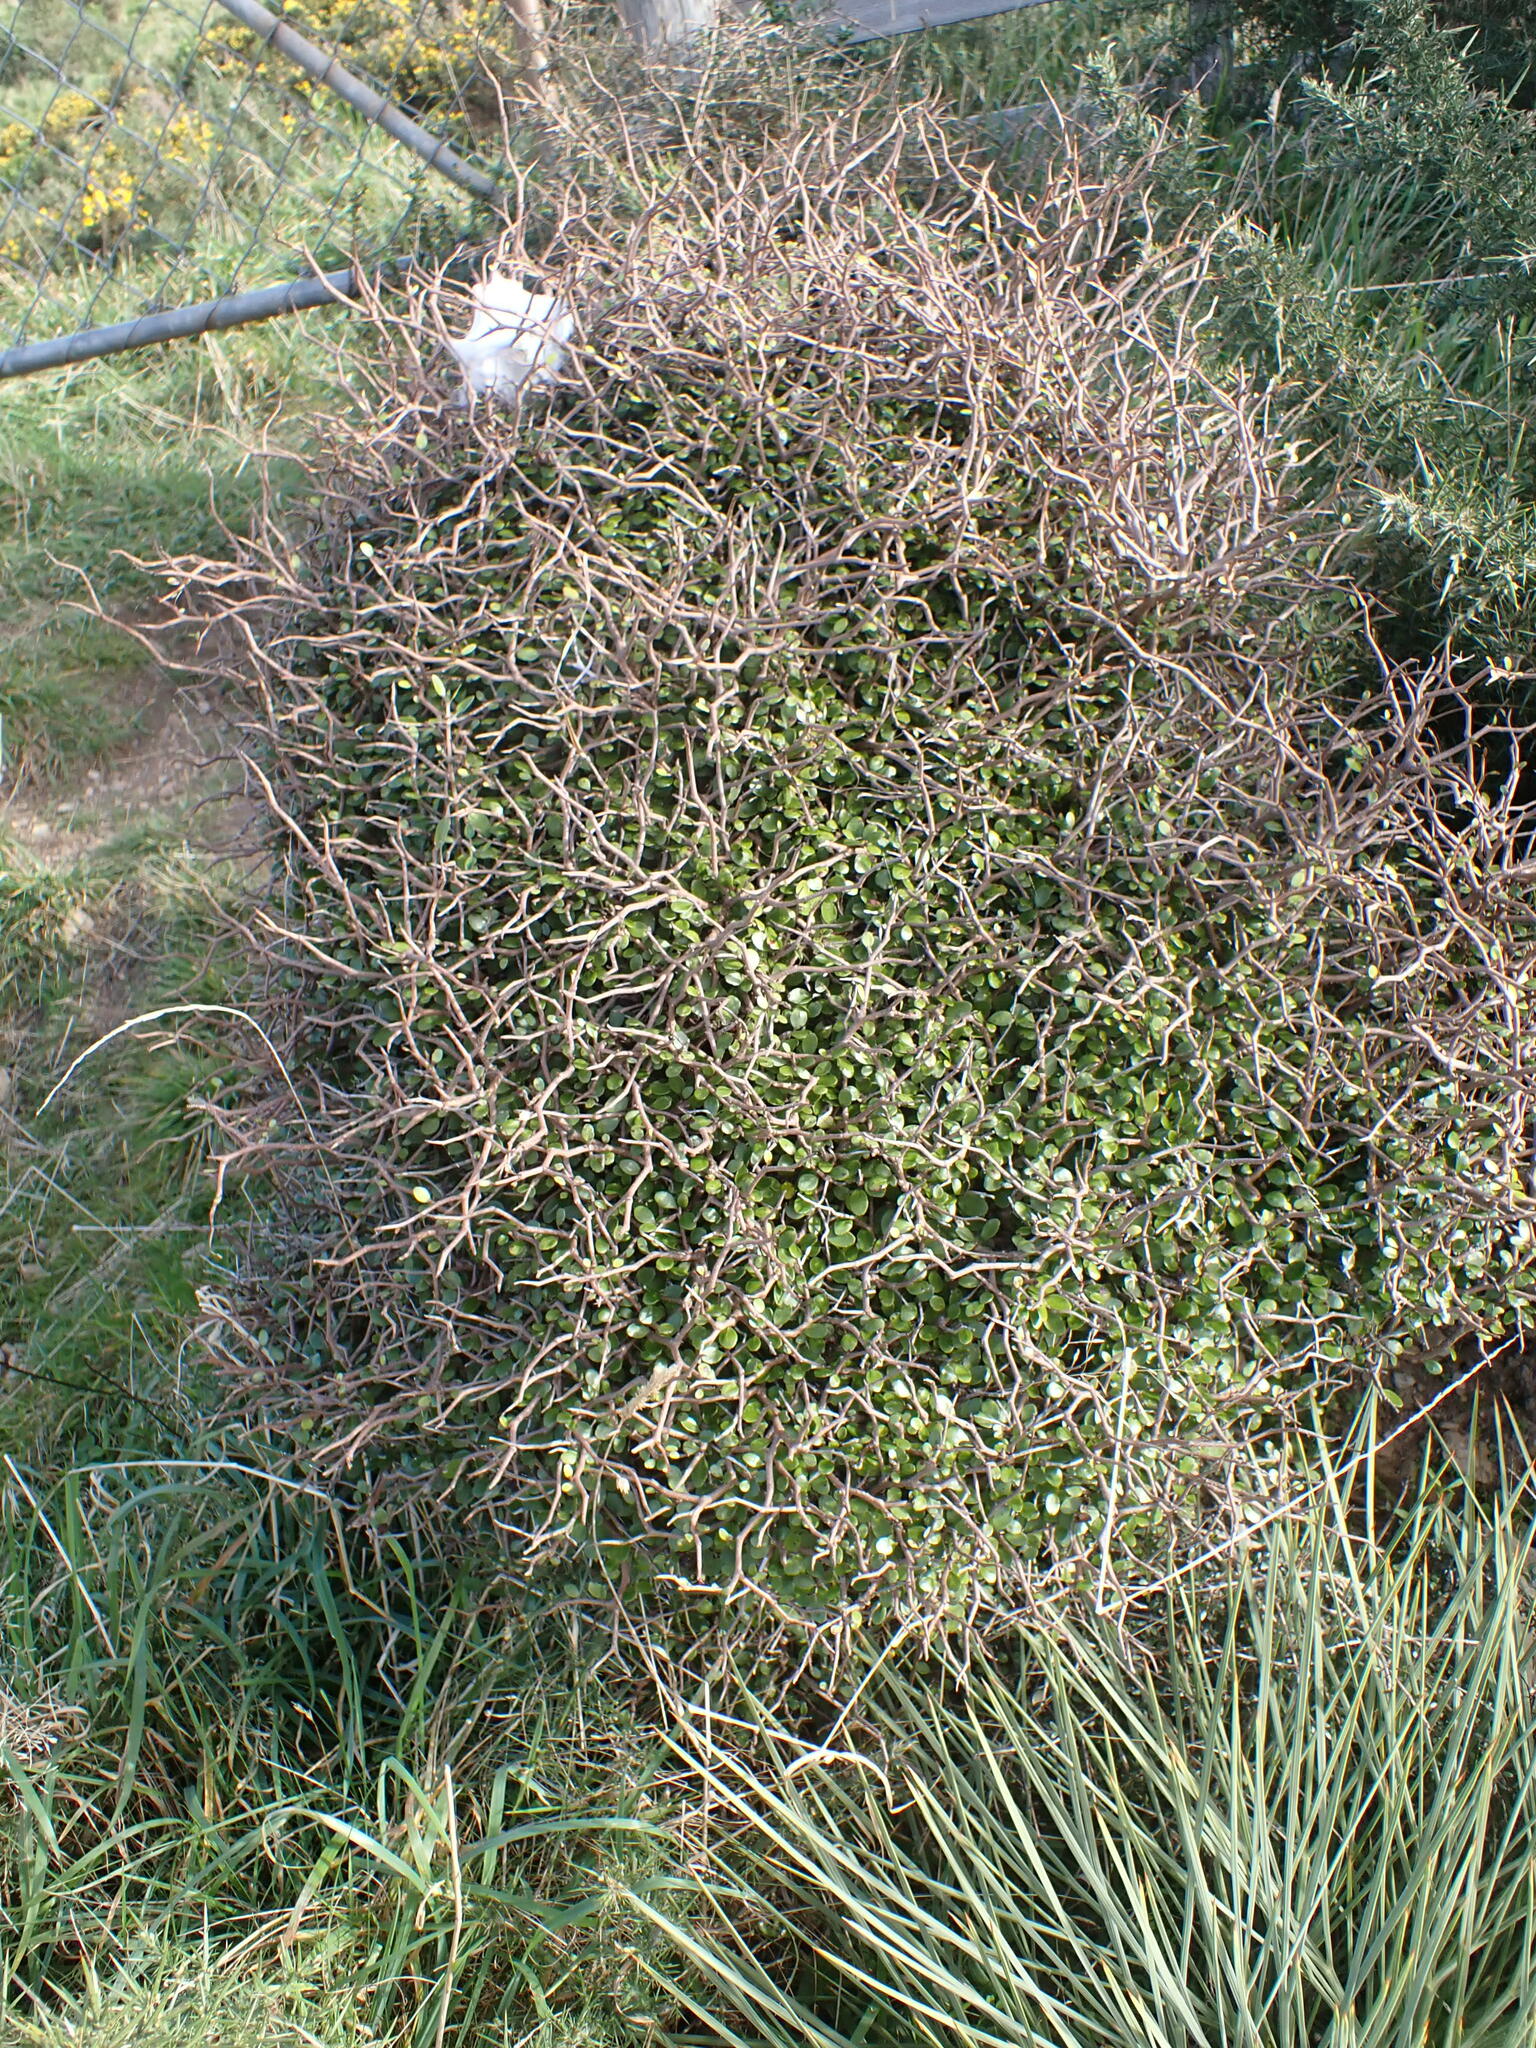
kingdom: Plantae
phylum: Tracheophyta
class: Magnoliopsida
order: Apiales
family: Araliaceae
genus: Raukaua
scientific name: Raukaua anomalus
